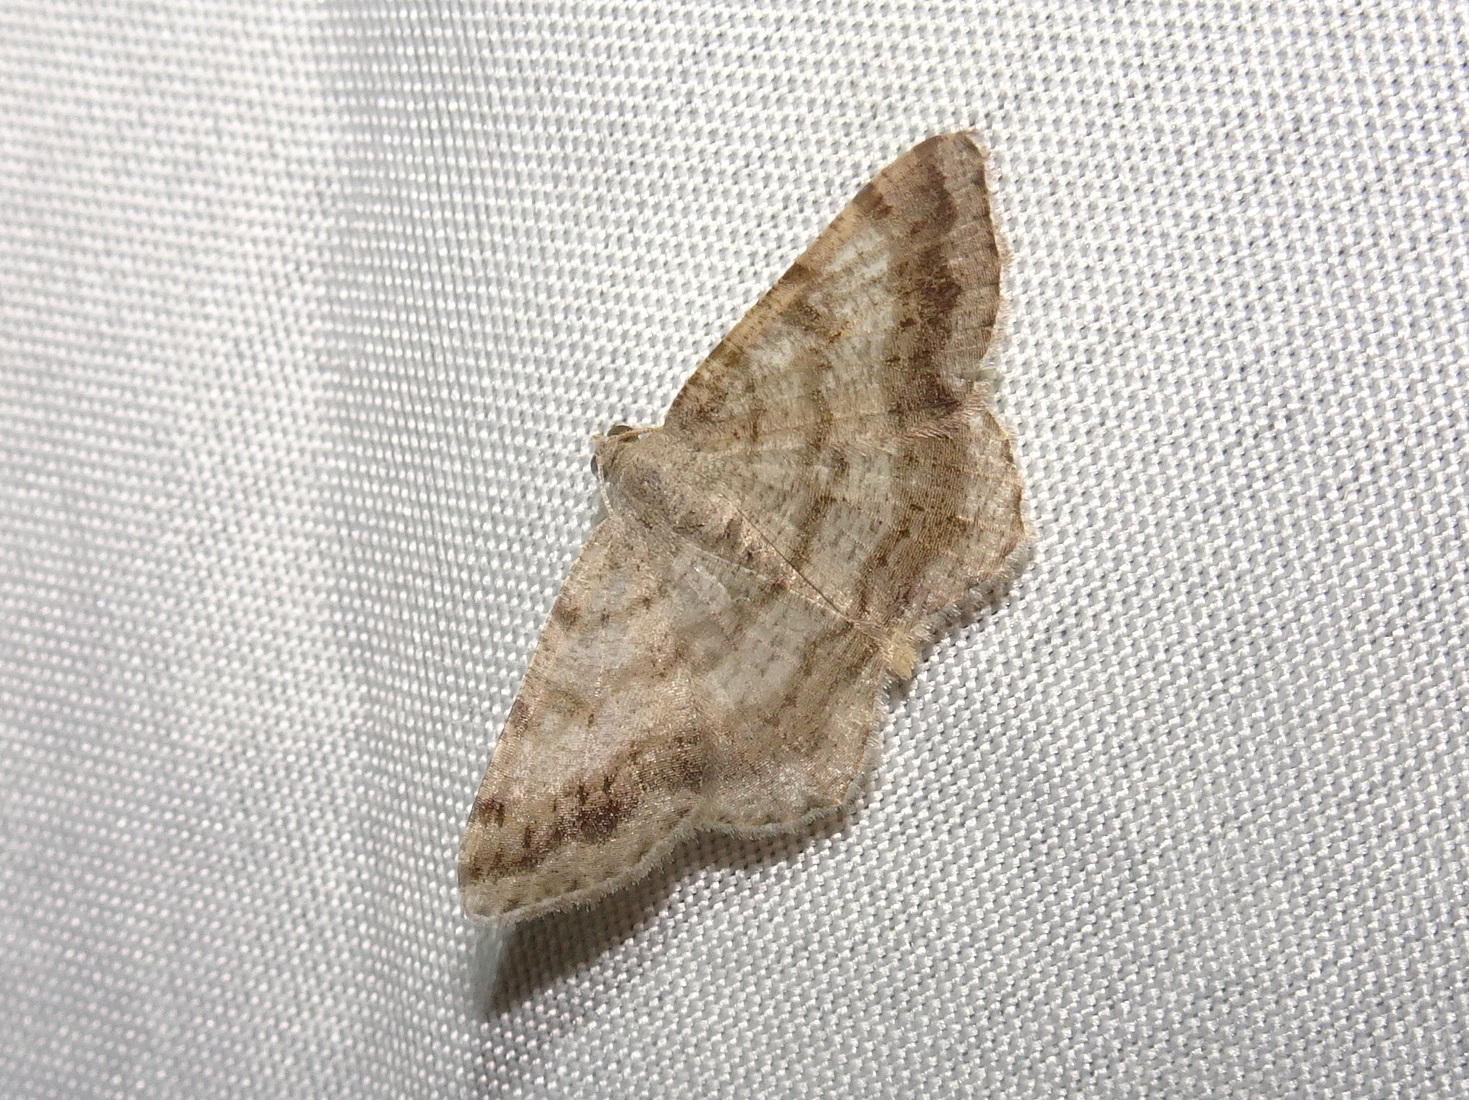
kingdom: Animalia
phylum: Arthropoda
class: Insecta
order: Lepidoptera
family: Geometridae
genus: Digrammia
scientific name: Digrammia ocellinata
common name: Faint-spotted angle
